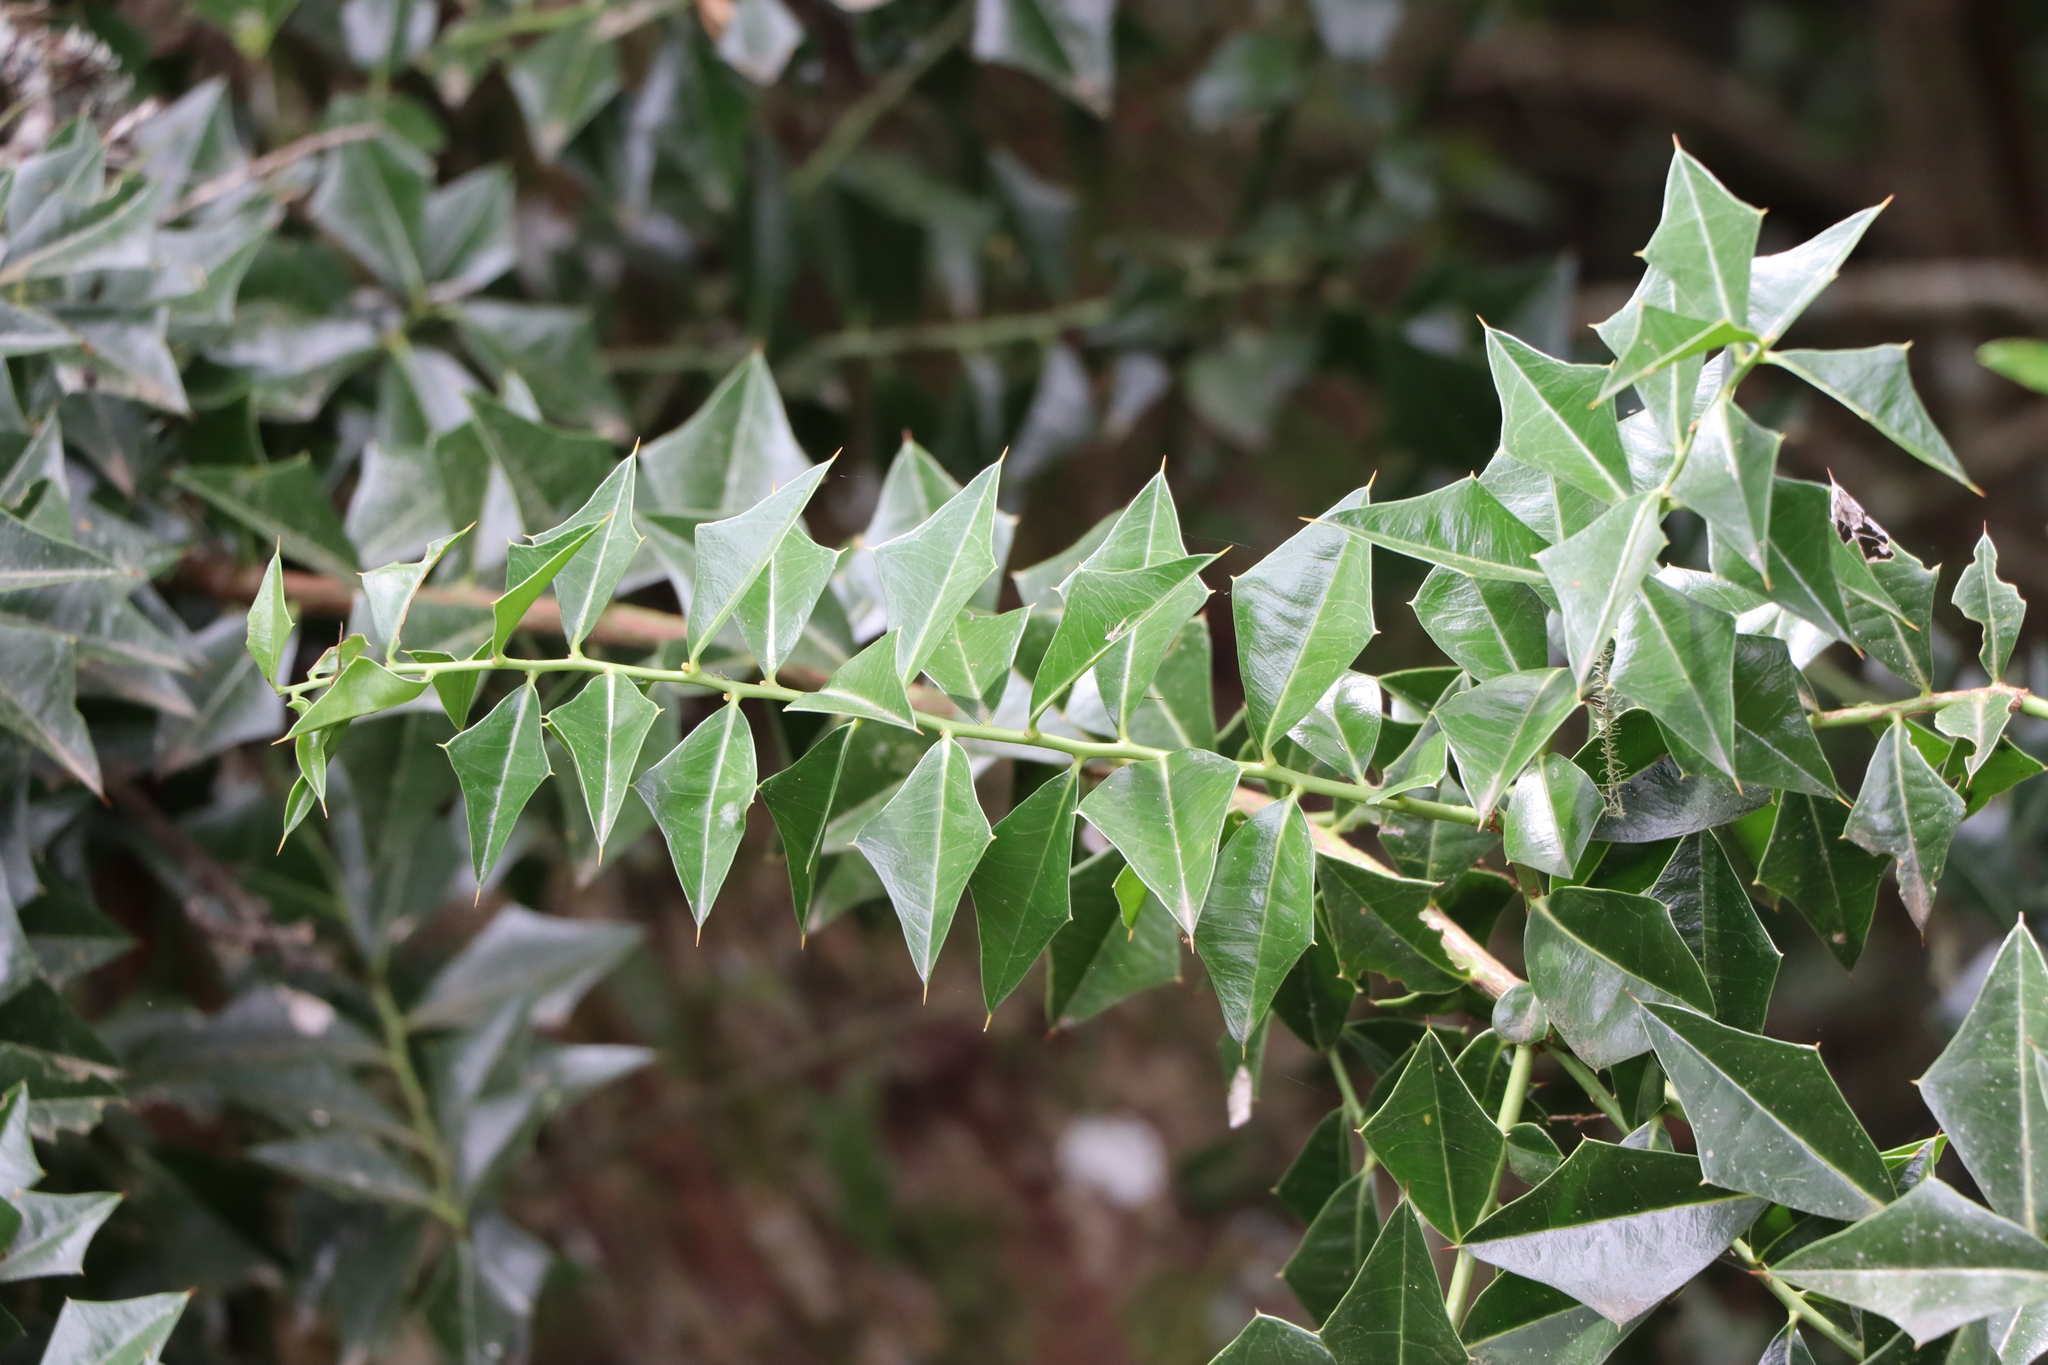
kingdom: Plantae
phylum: Tracheophyta
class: Magnoliopsida
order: Santalales
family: Cervantesiaceae
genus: Jodina
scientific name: Jodina rhombifolia
